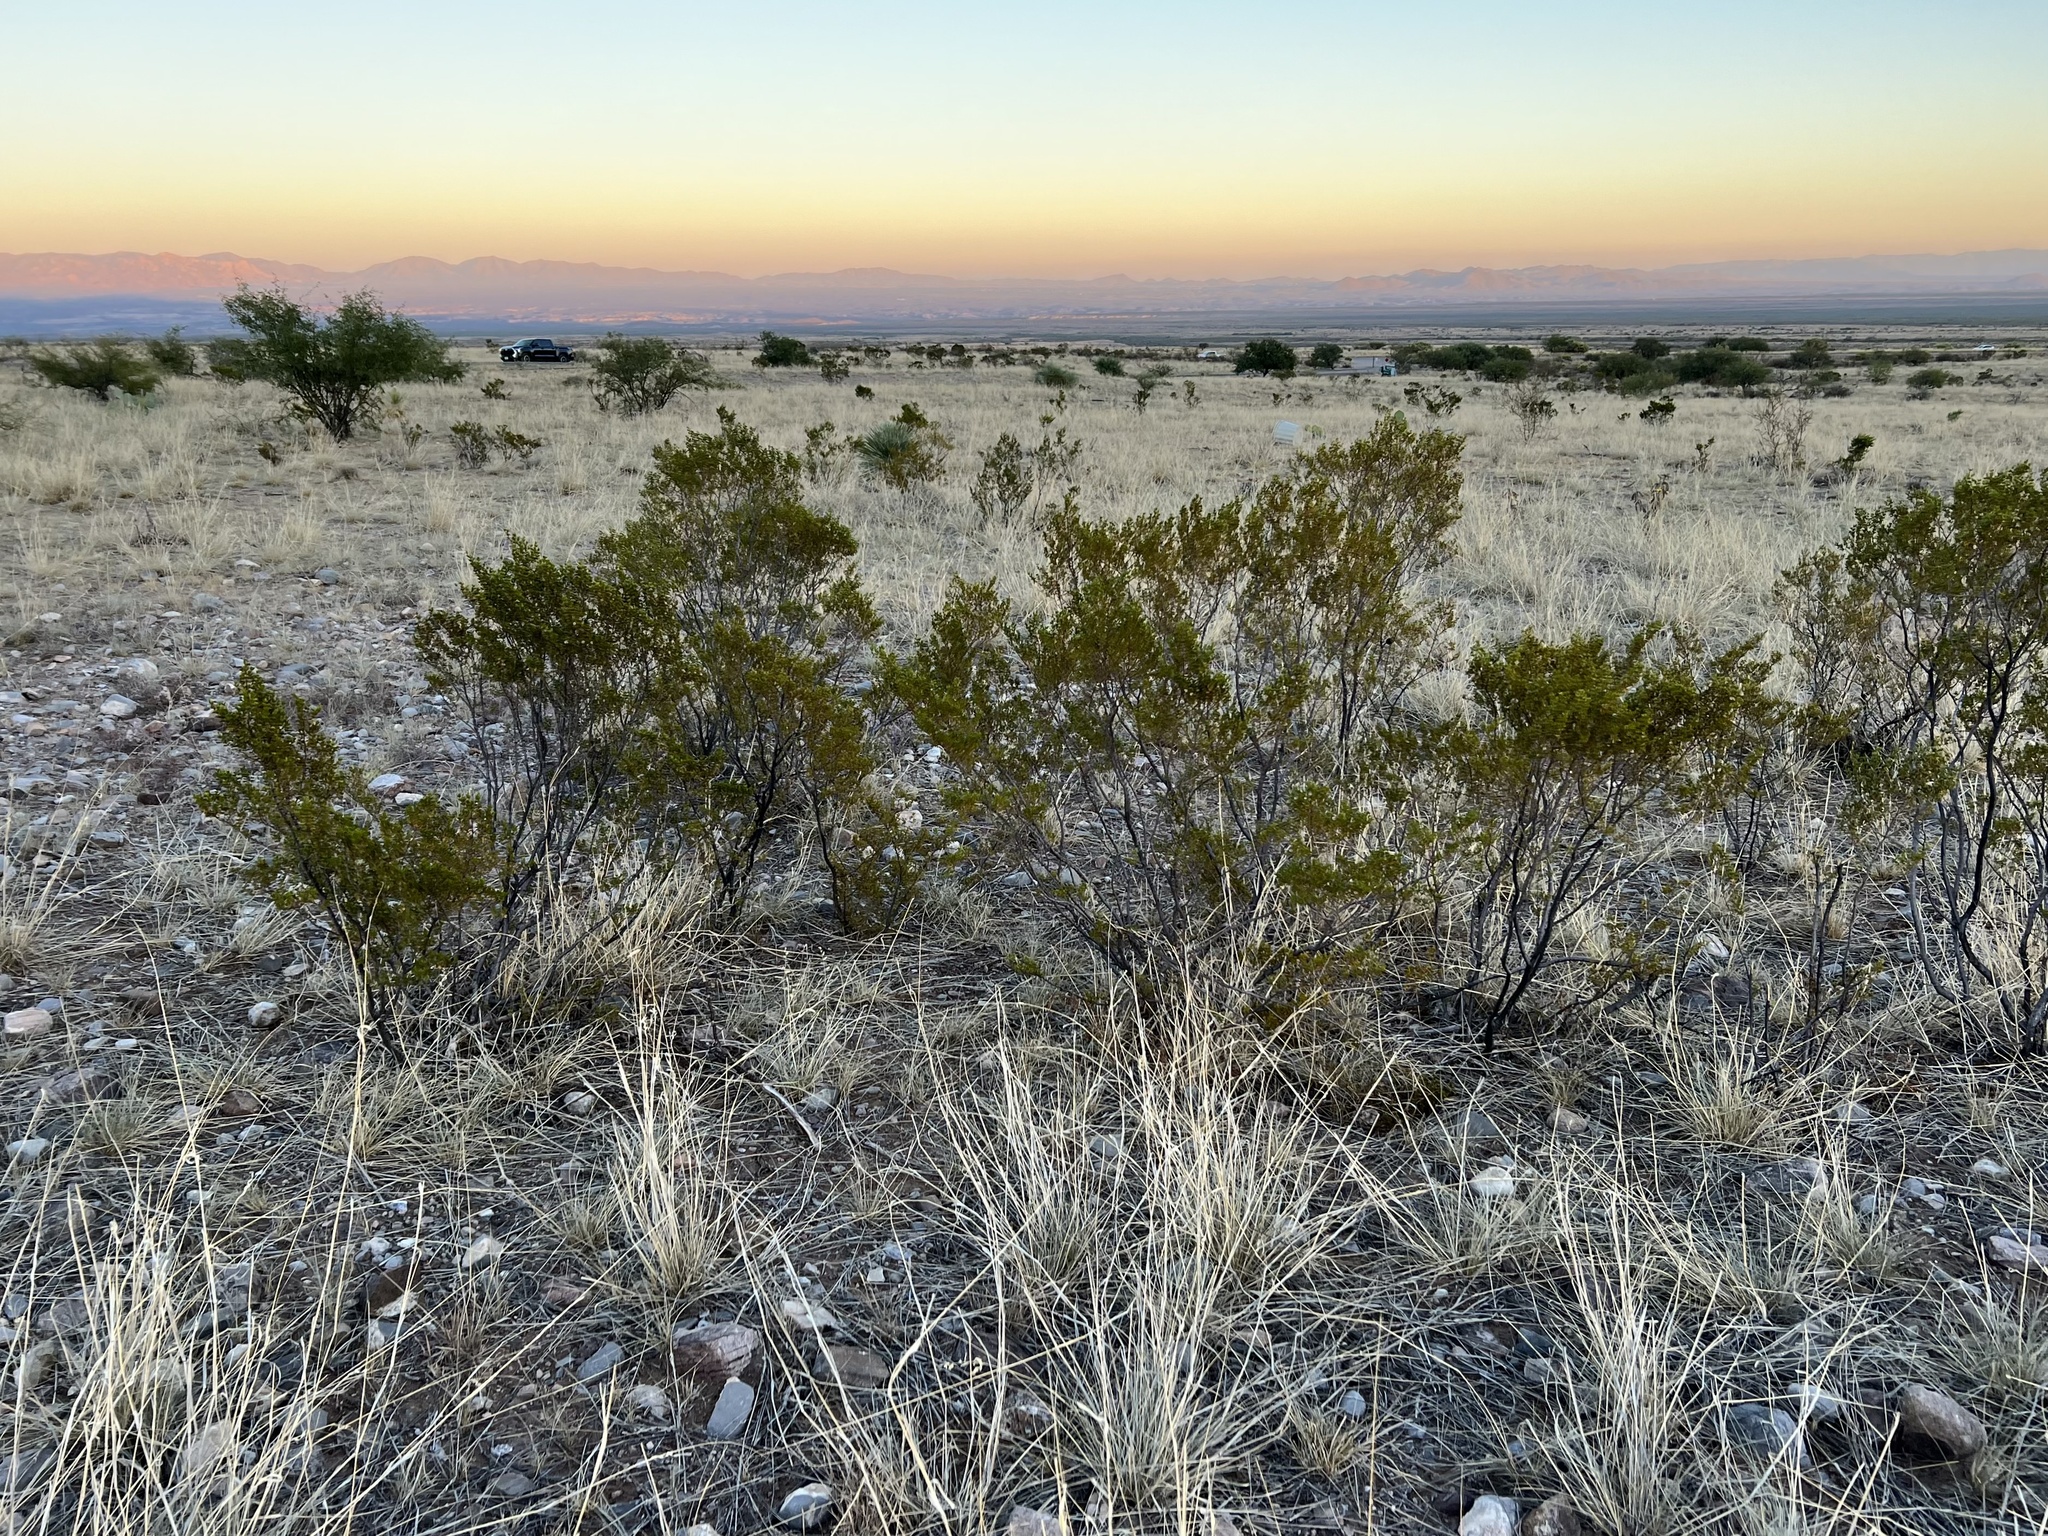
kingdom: Plantae
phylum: Tracheophyta
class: Magnoliopsida
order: Zygophyllales
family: Zygophyllaceae
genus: Larrea
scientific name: Larrea tridentata
